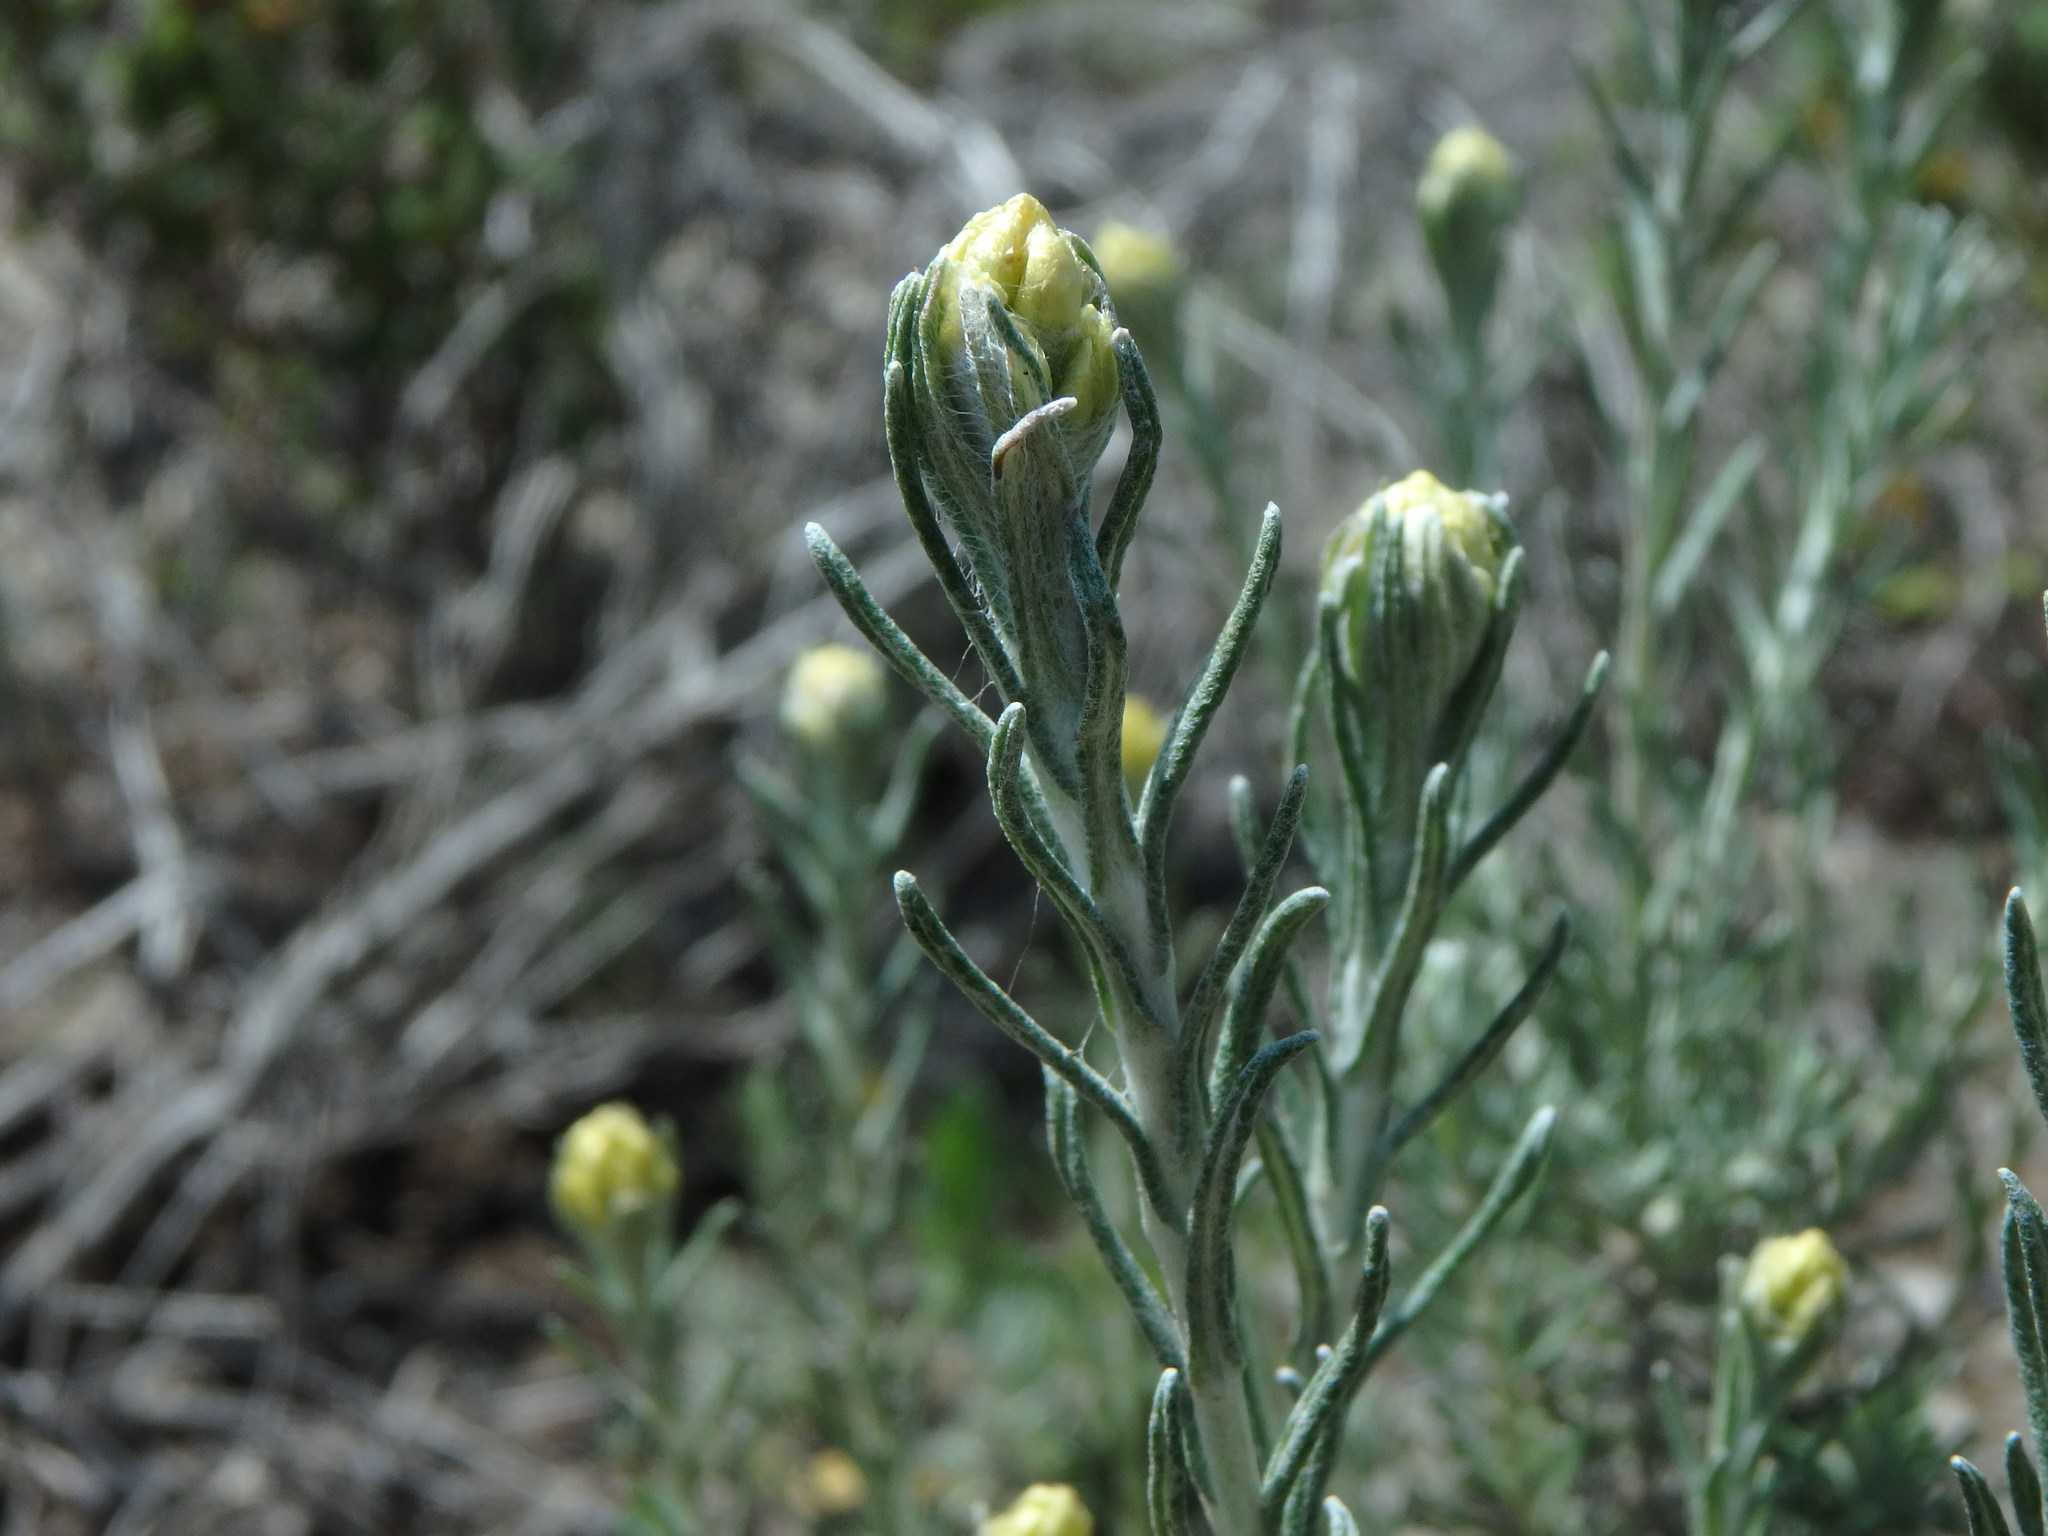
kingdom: Plantae
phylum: Tracheophyta
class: Magnoliopsida
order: Asterales
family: Asteraceae
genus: Helichrysum
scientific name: Helichrysum stoechas
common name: Goldilocks
